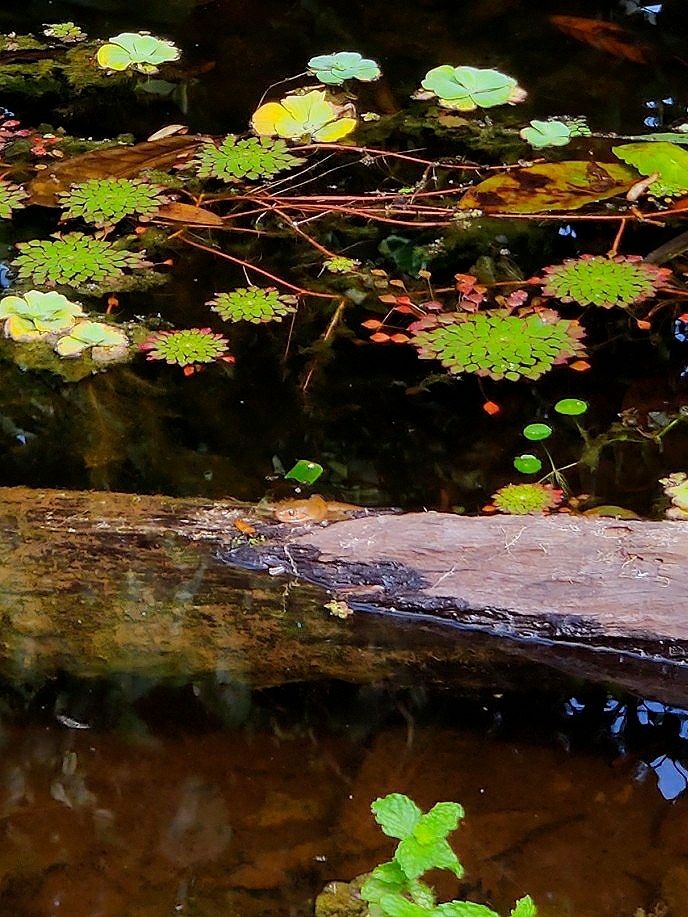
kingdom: Animalia
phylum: Chordata
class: Squamata
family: Colubridae
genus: Fowlea
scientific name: Fowlea piscator
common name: Asiatic water snake
